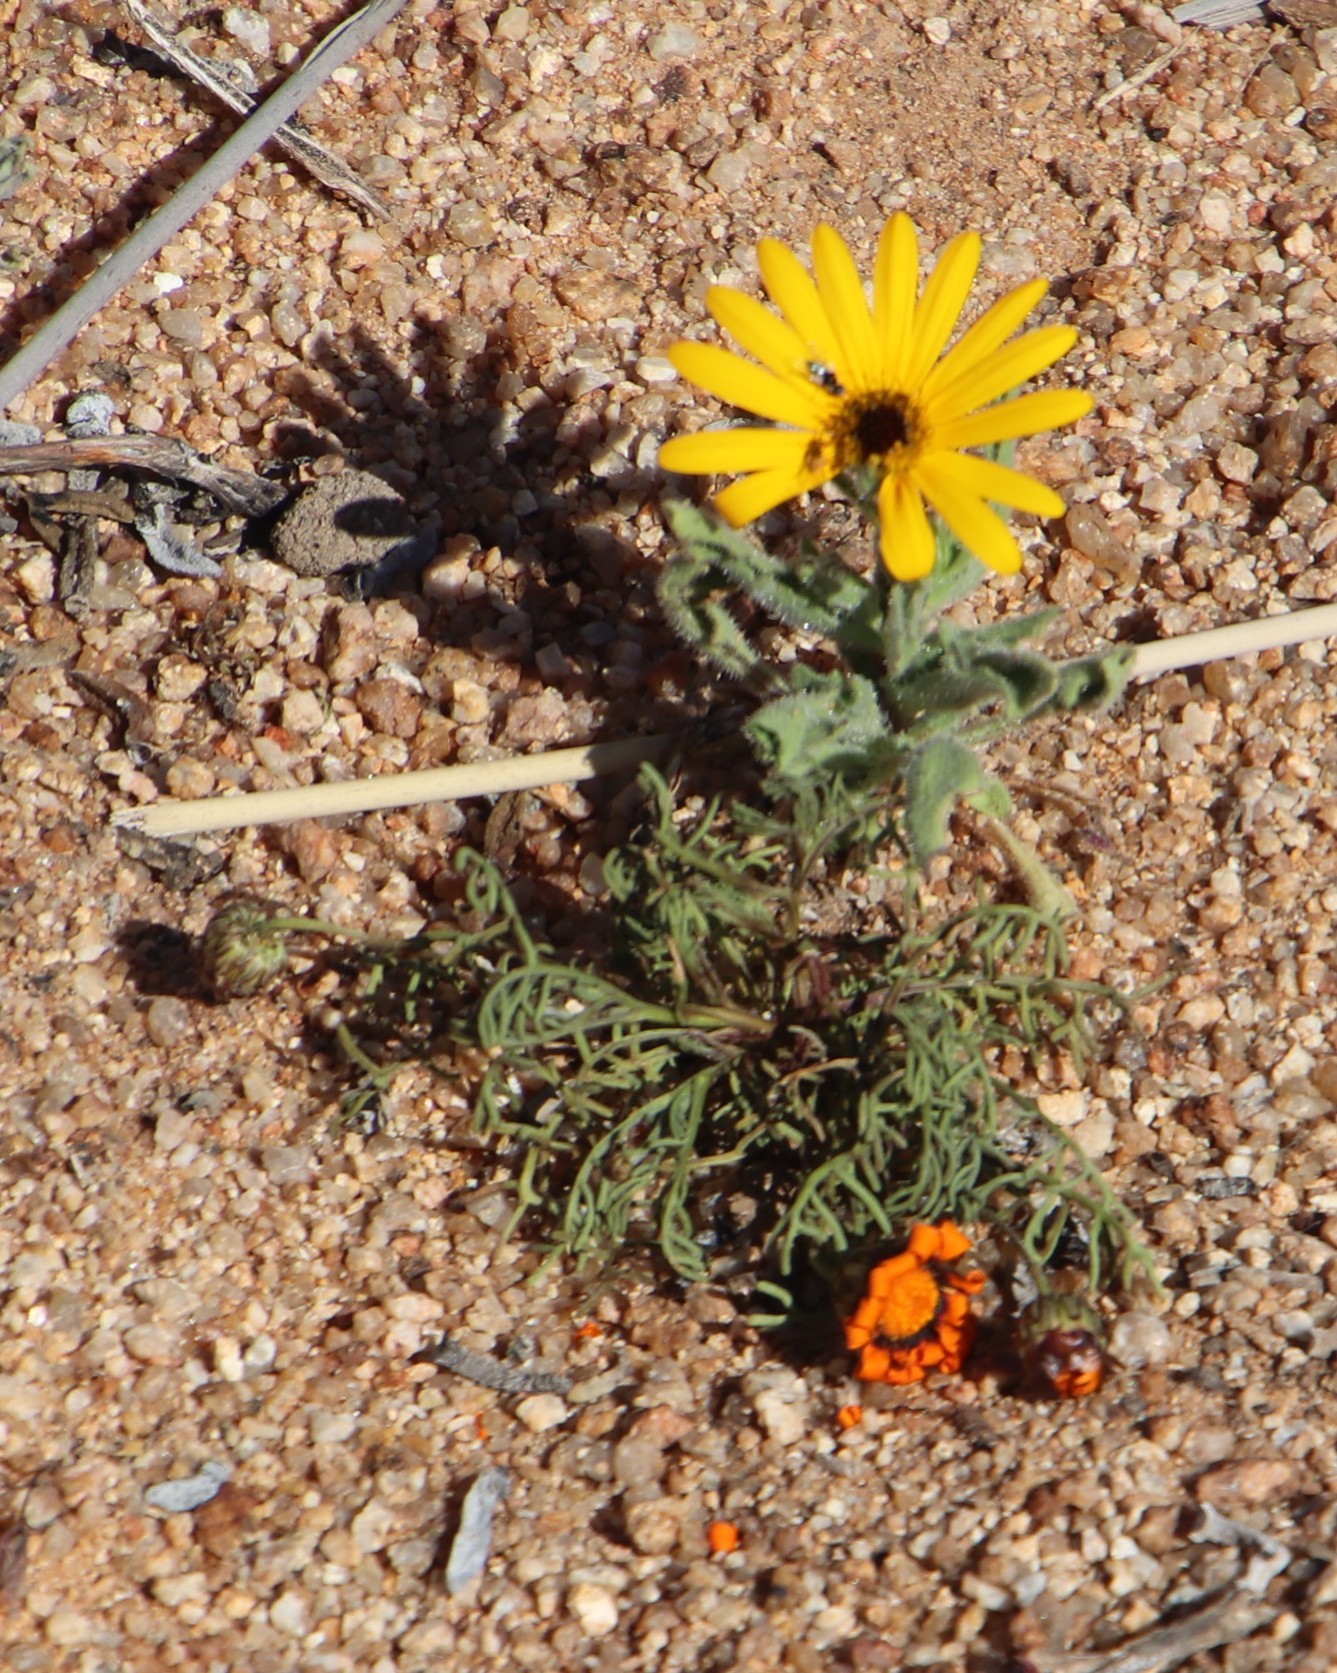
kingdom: Plantae
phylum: Tracheophyta
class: Magnoliopsida
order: Asterales
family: Asteraceae
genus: Osteospermum
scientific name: Osteospermum amplectens
